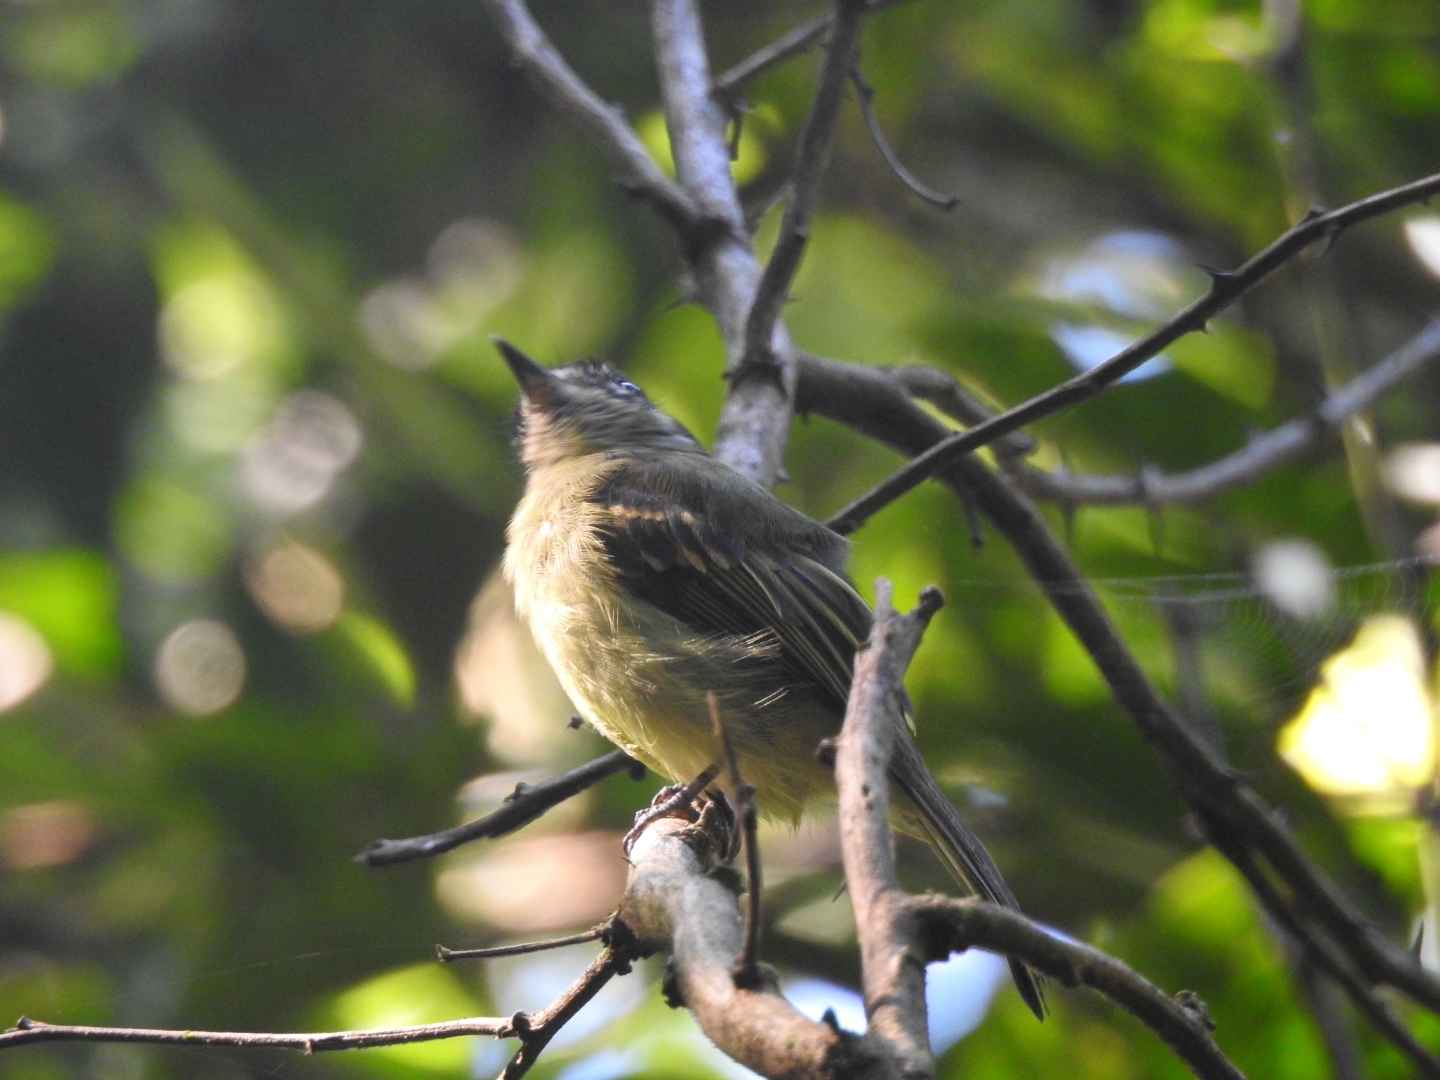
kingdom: Animalia
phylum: Chordata
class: Aves
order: Passeriformes
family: Tyrannidae
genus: Leptopogon
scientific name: Leptopogon amaurocephalus
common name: Sepia-capped flycatcher
